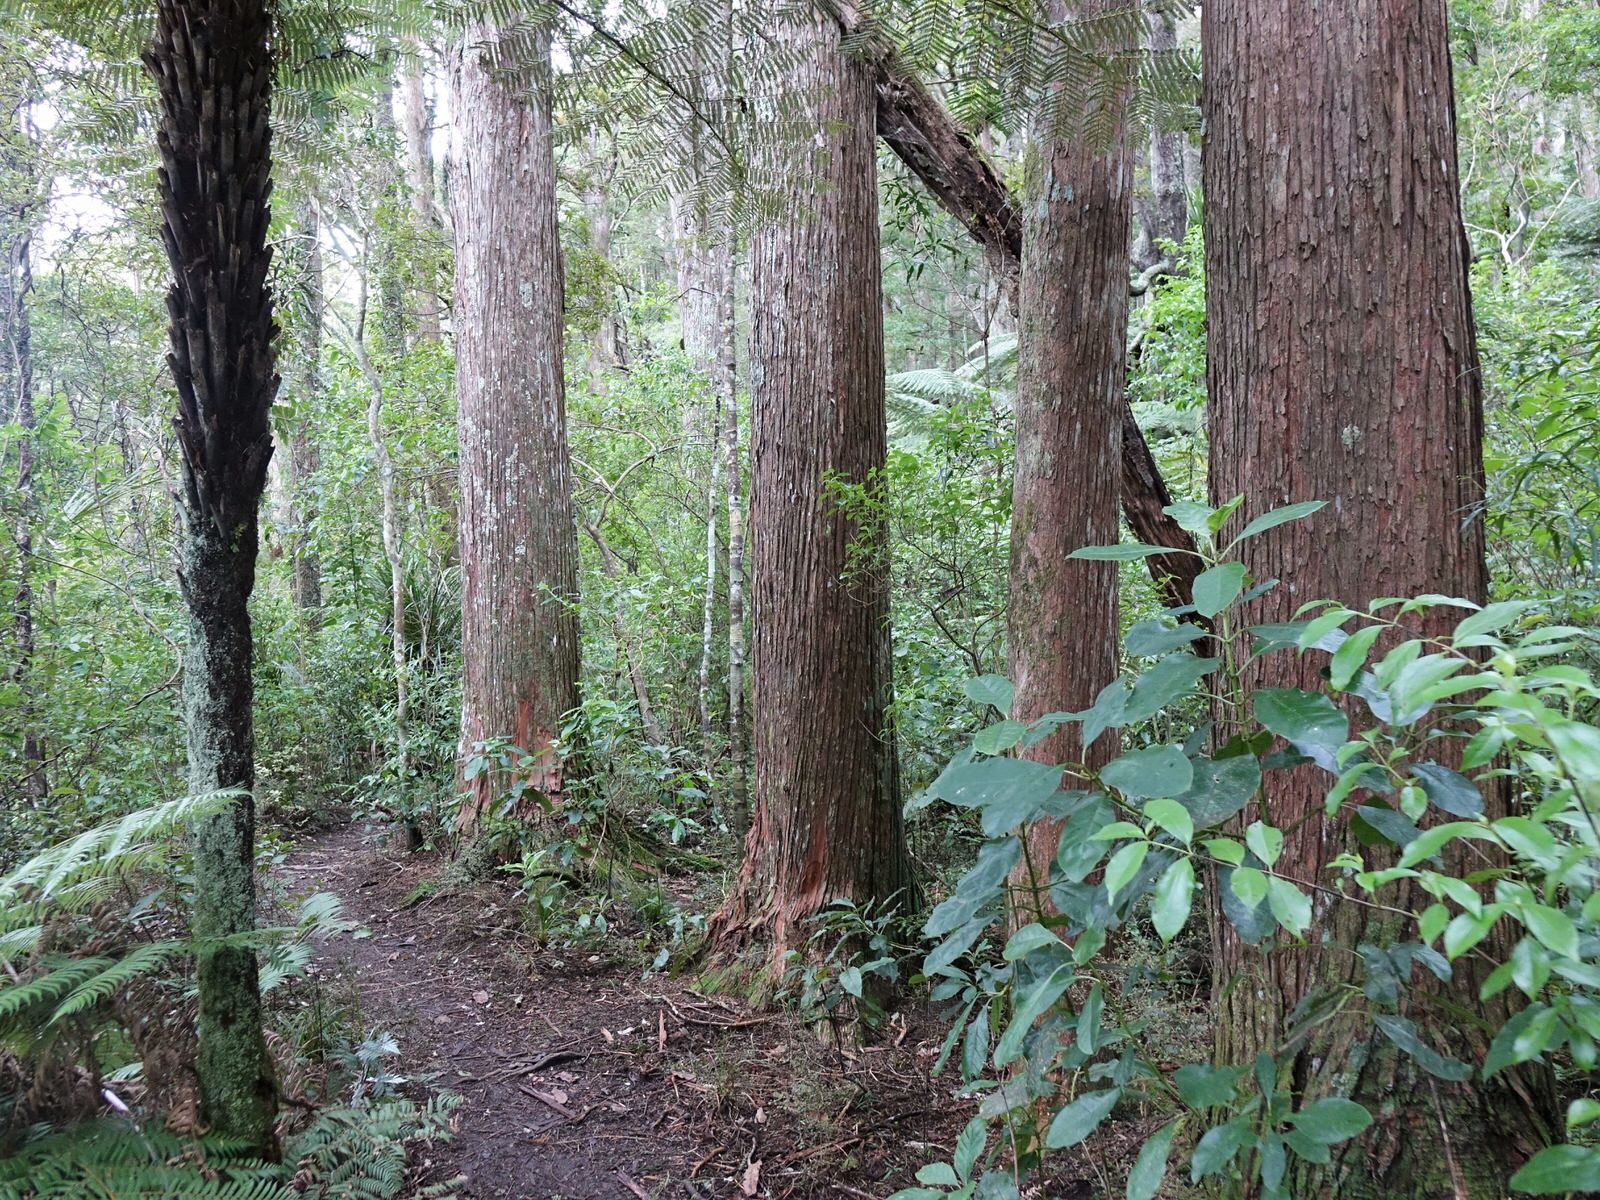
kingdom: Plantae
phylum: Tracheophyta
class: Pinopsida
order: Pinales
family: Podocarpaceae
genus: Podocarpus
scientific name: Podocarpus totara
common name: Totara
